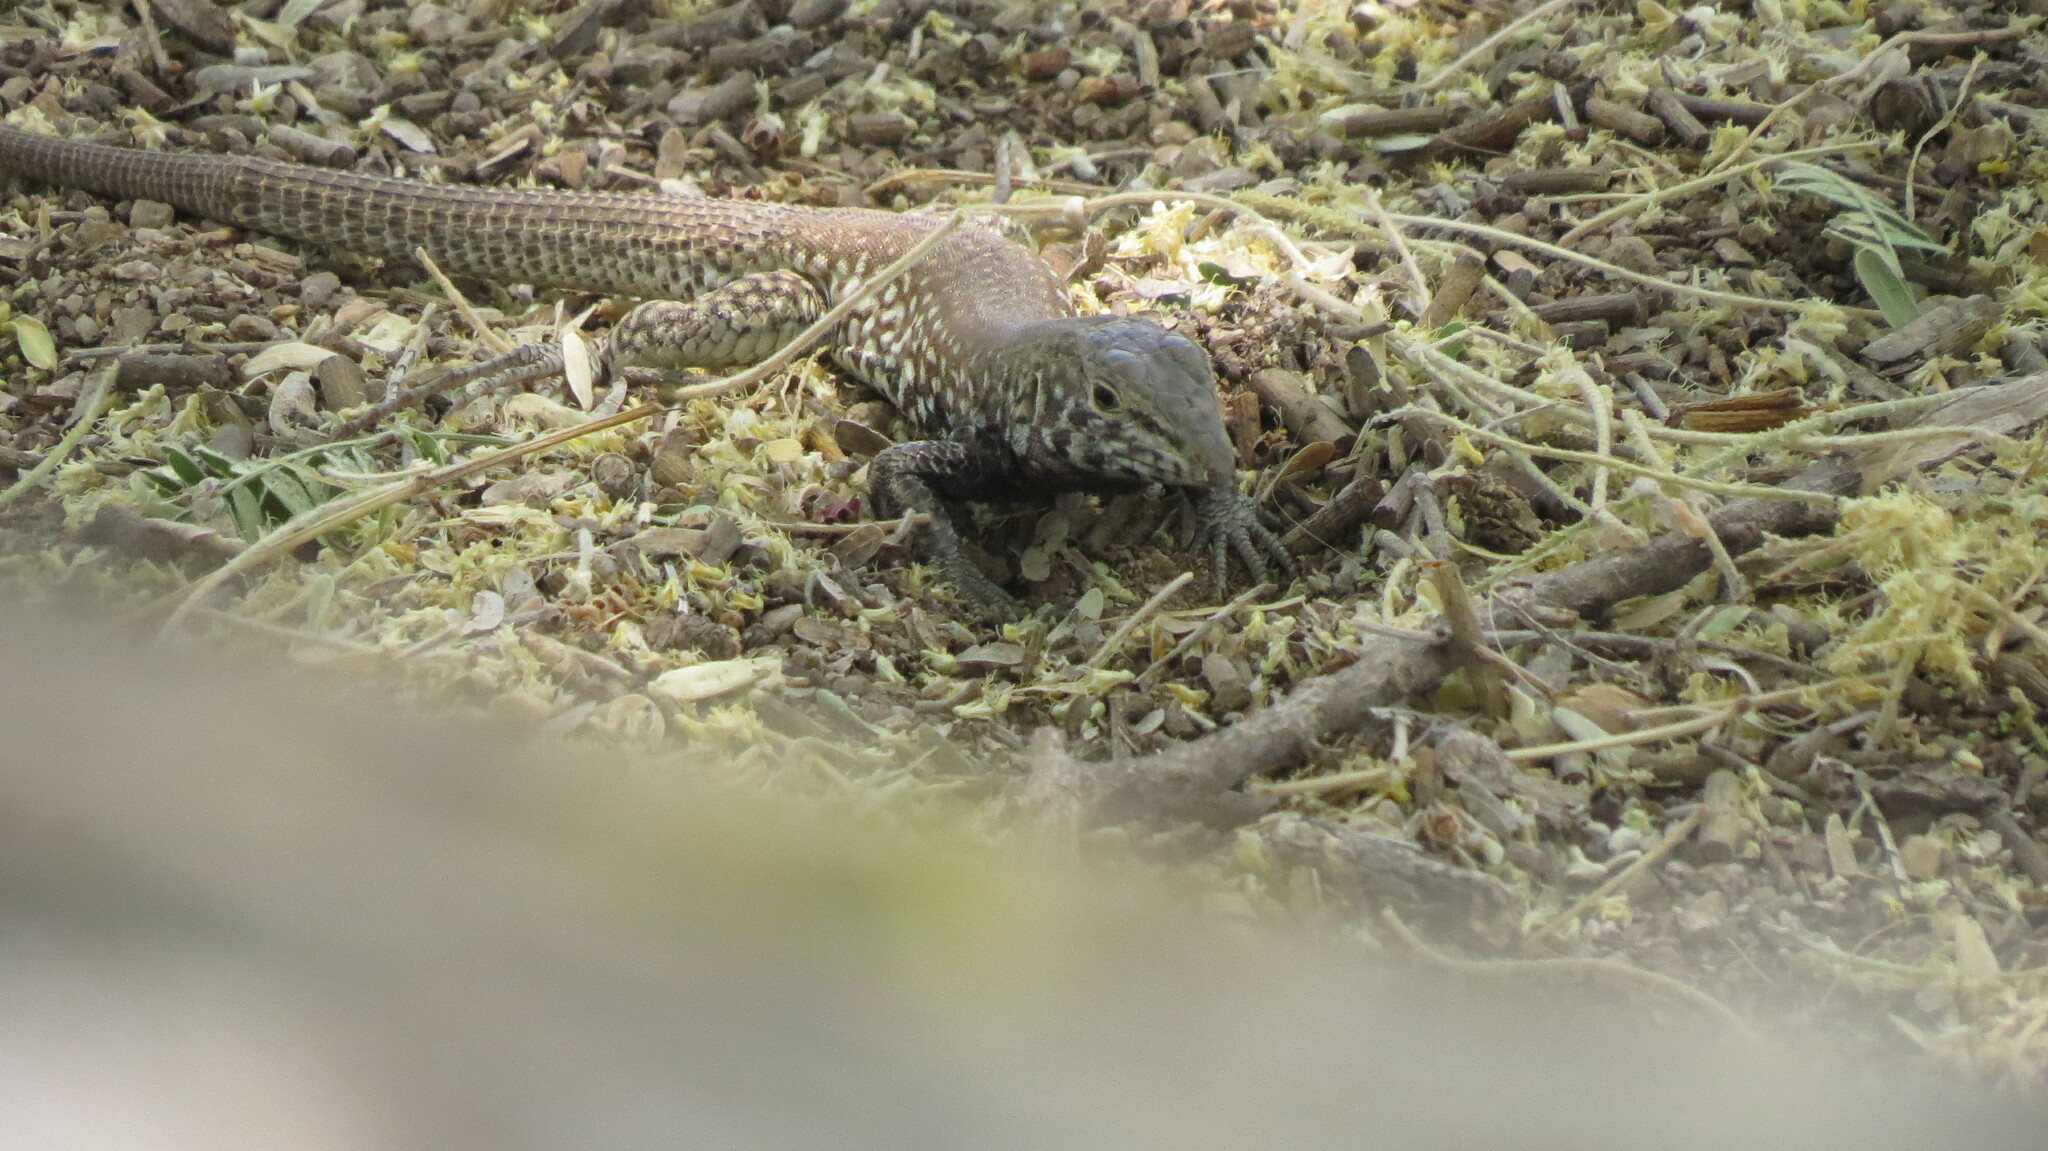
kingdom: Animalia
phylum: Chordata
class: Squamata
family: Teiidae
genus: Aspidoscelis
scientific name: Aspidoscelis tigris
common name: Tiger whiptail
